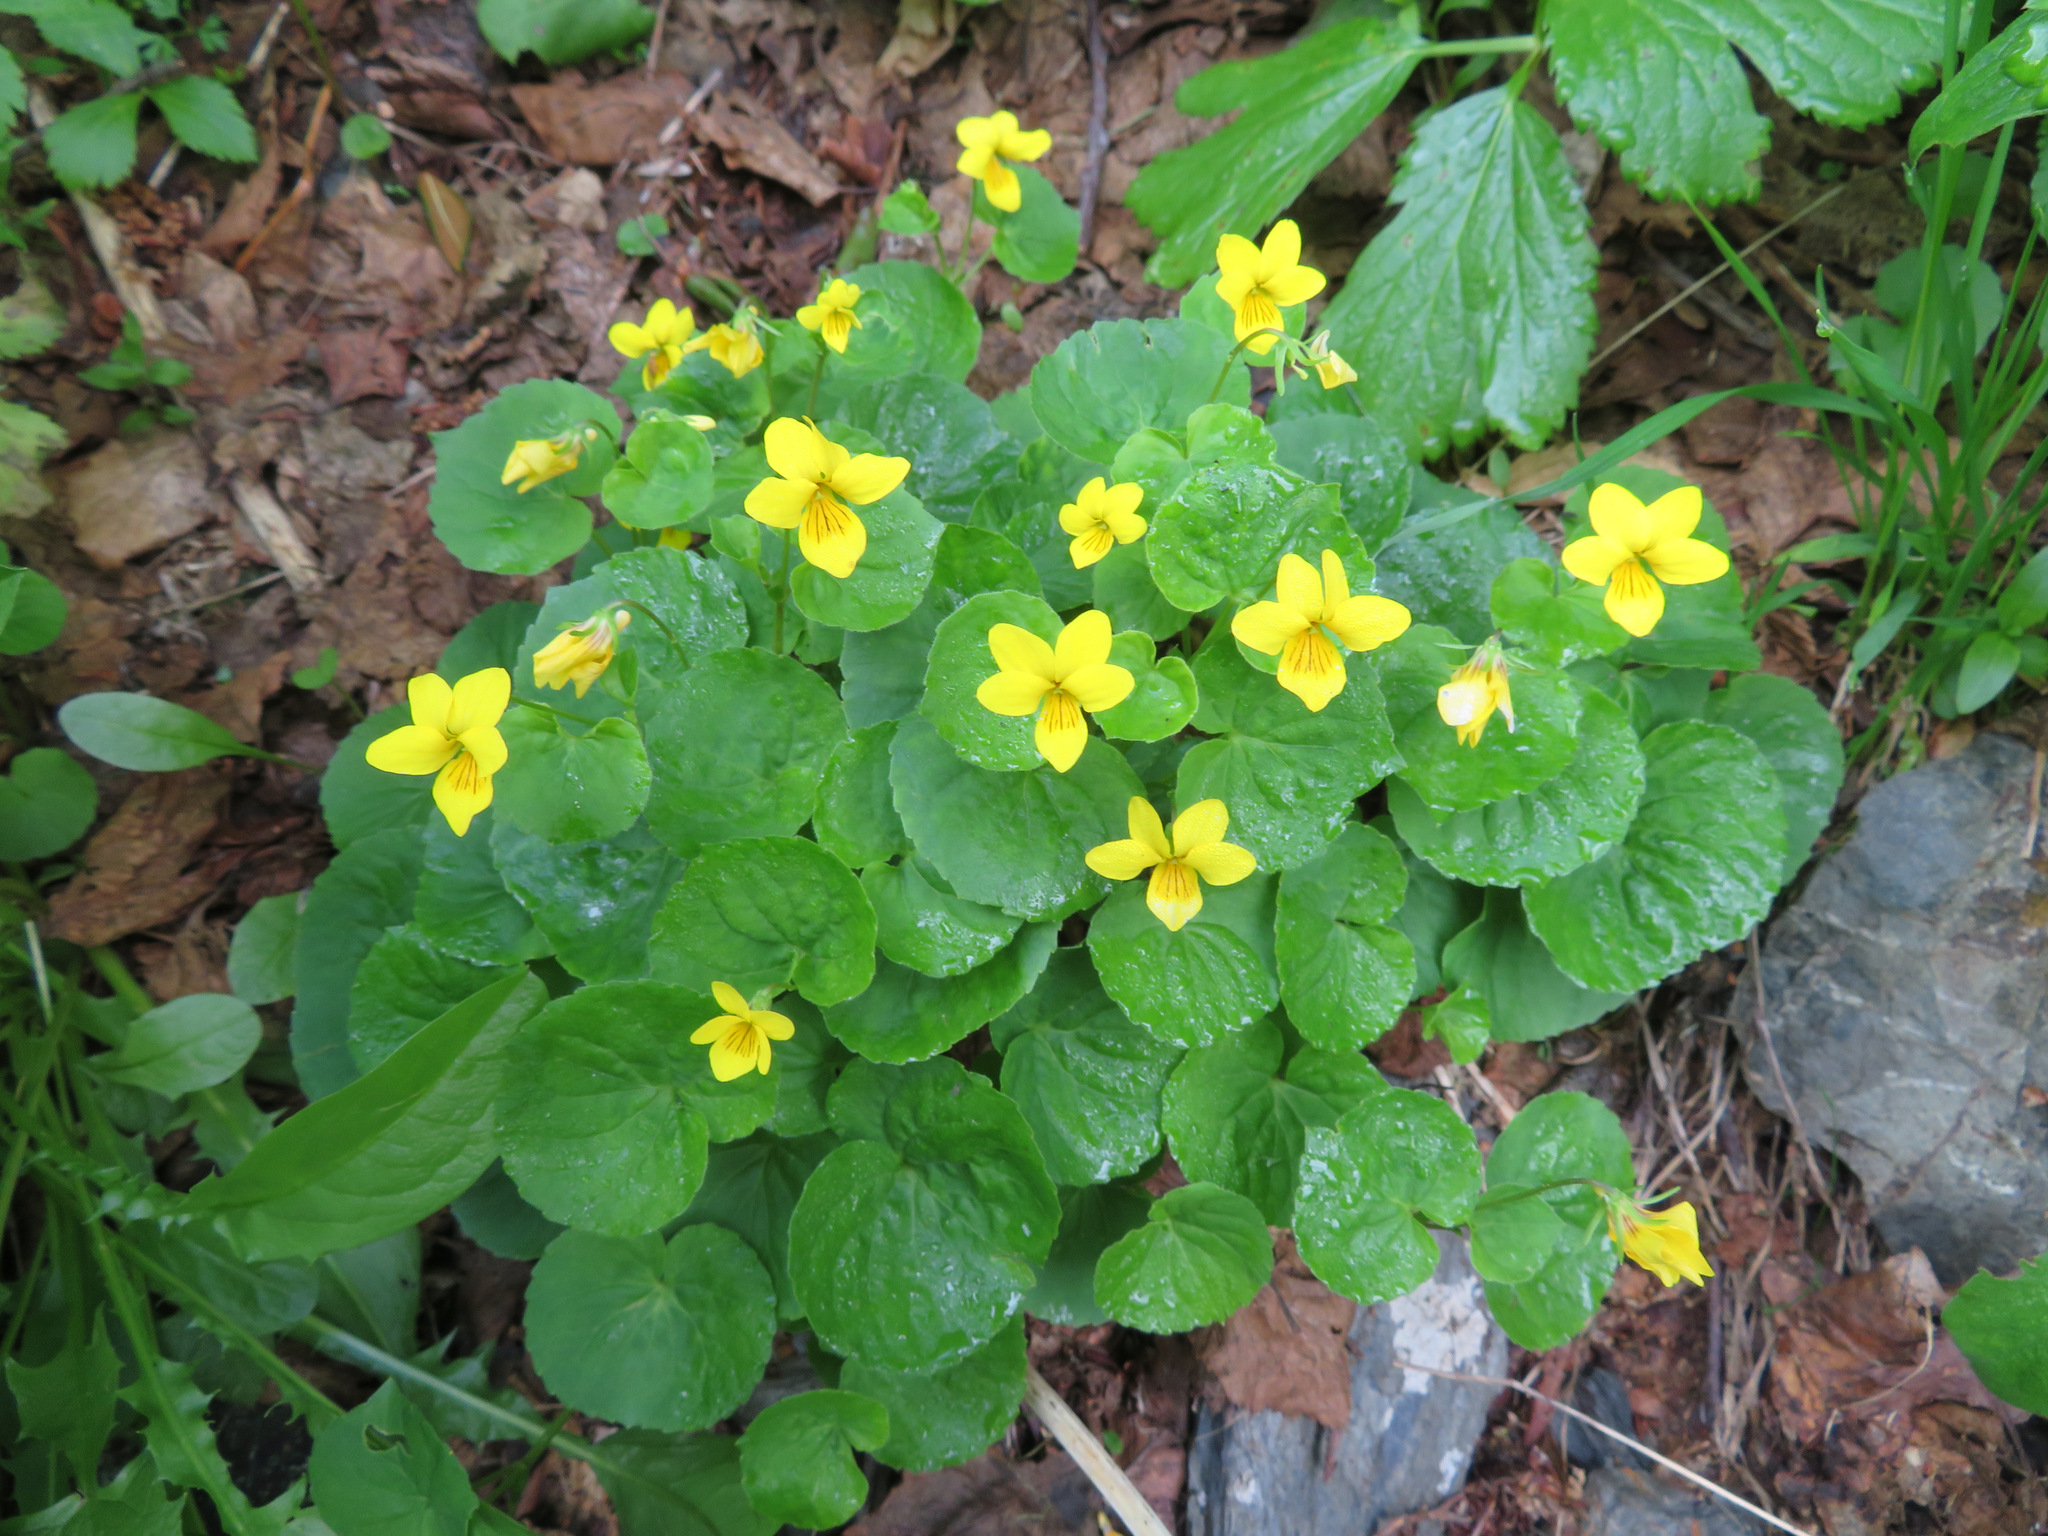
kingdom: Plantae
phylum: Tracheophyta
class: Magnoliopsida
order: Malpighiales
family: Violaceae
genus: Viola
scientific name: Viola biflora
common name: Alpine yellow violet
